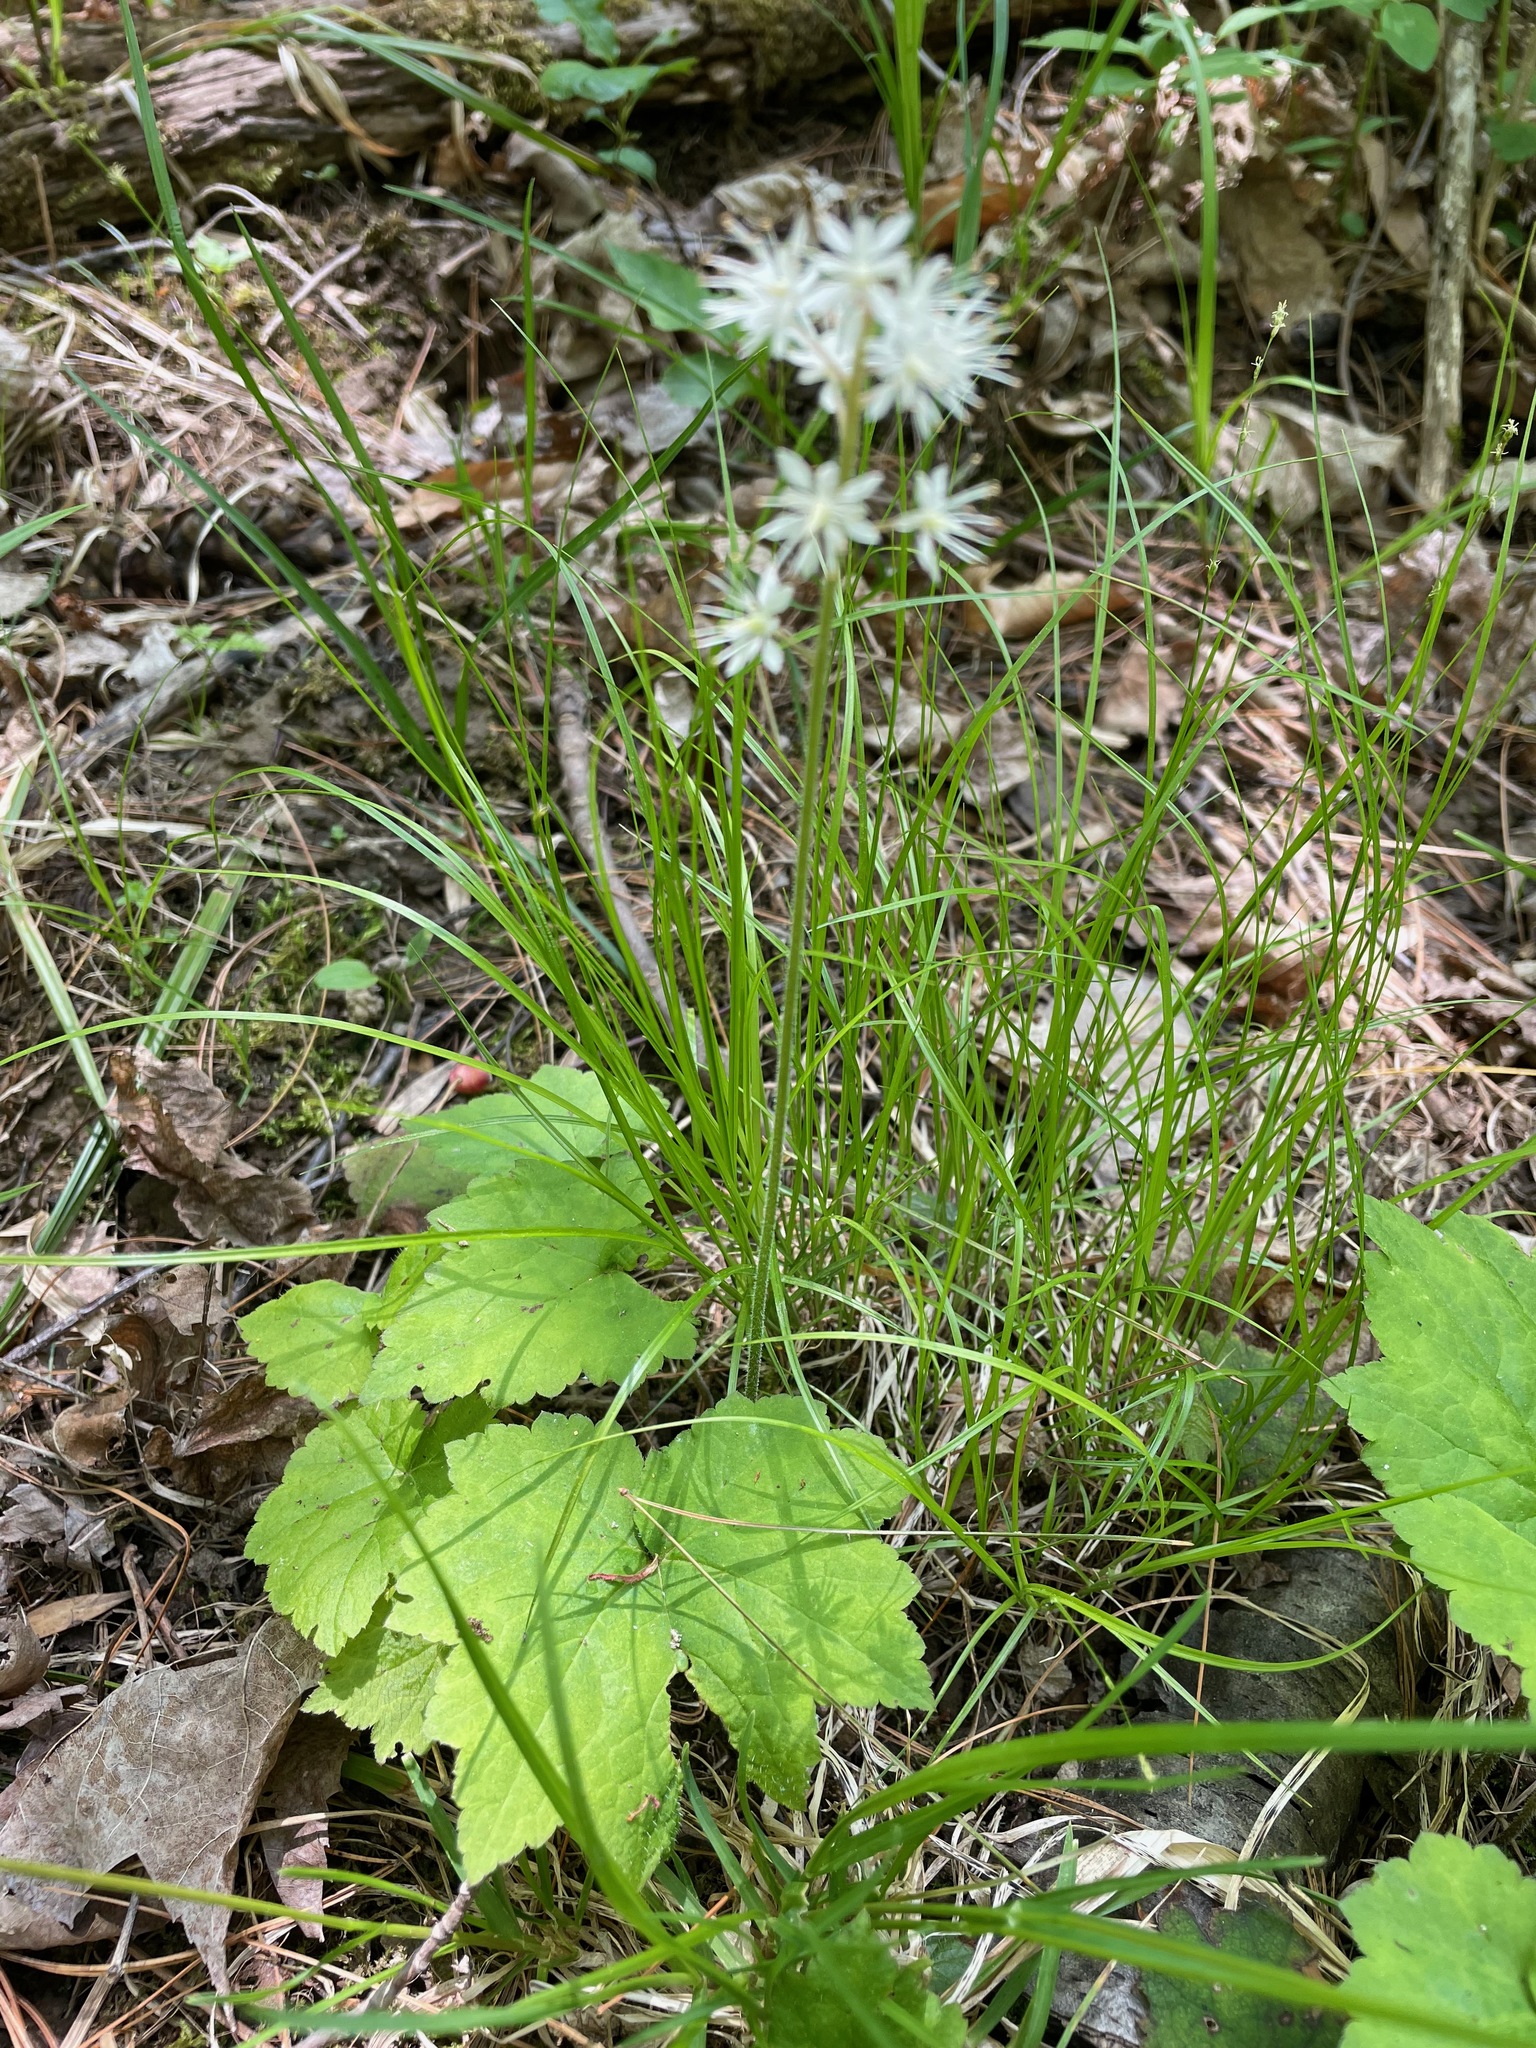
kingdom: Plantae
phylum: Tracheophyta
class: Magnoliopsida
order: Saxifragales
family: Saxifragaceae
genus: Tiarella
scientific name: Tiarella stolonifera
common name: Stoloniferous foamflower
